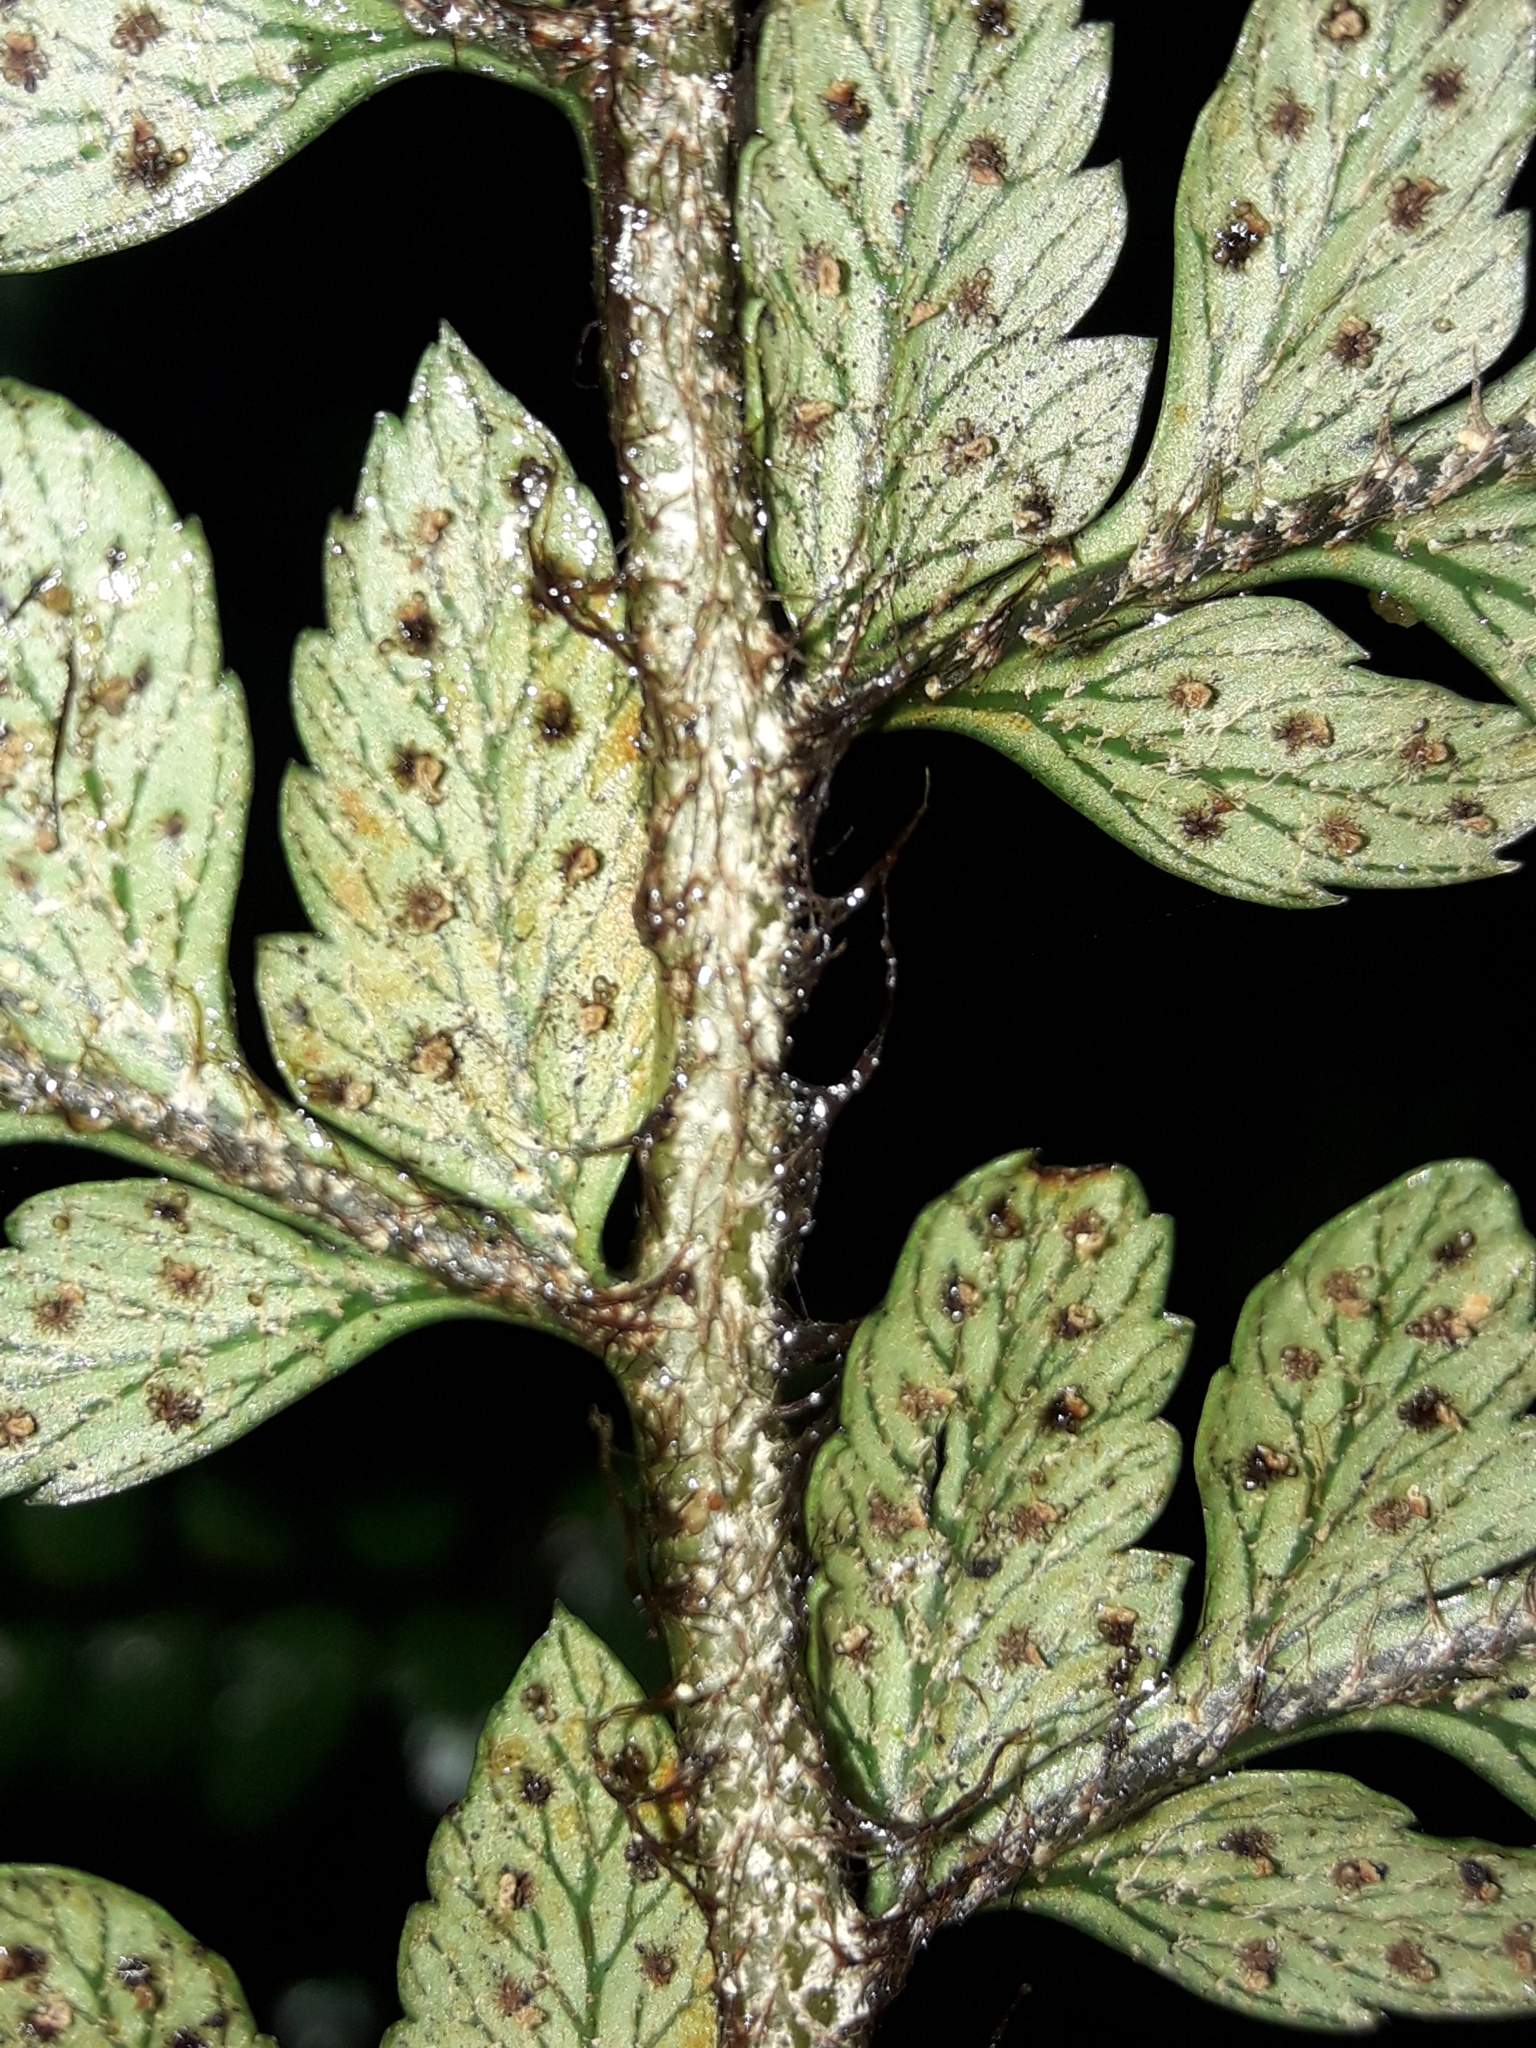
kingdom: Plantae
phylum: Tracheophyta
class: Polypodiopsida
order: Polypodiales
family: Dryopteridaceae
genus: Polystichum
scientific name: Polystichum wawranum
